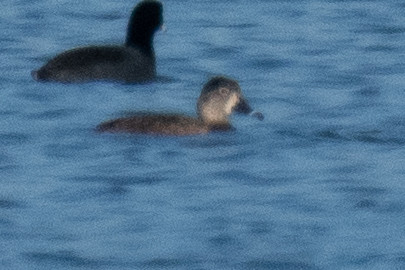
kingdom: Animalia
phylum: Chordata
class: Aves
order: Anseriformes
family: Anatidae
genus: Aythya
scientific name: Aythya collaris
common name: Ring-necked duck
